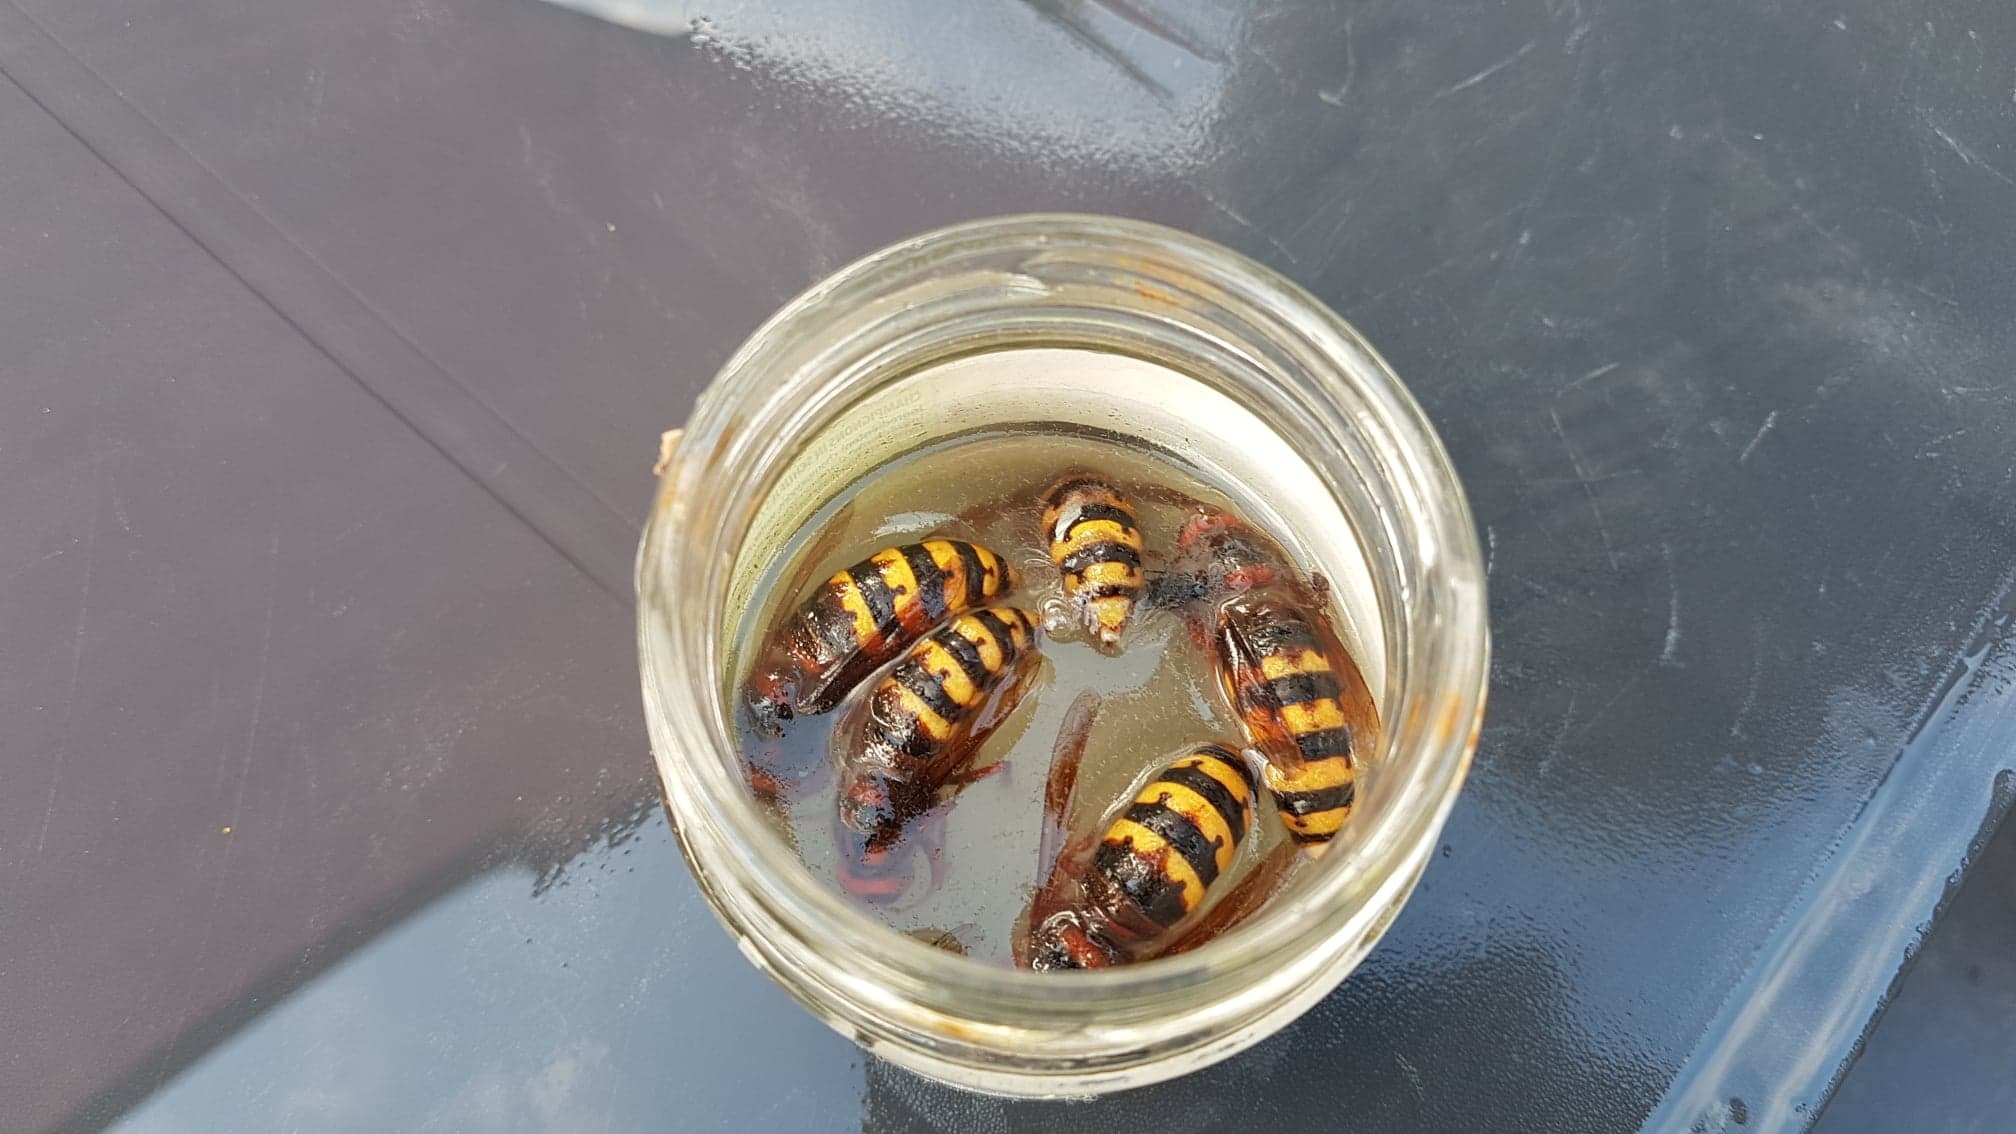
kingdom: Animalia
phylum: Arthropoda
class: Insecta
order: Hymenoptera
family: Vespidae
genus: Vespa
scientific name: Vespa crabro
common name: Hornet
